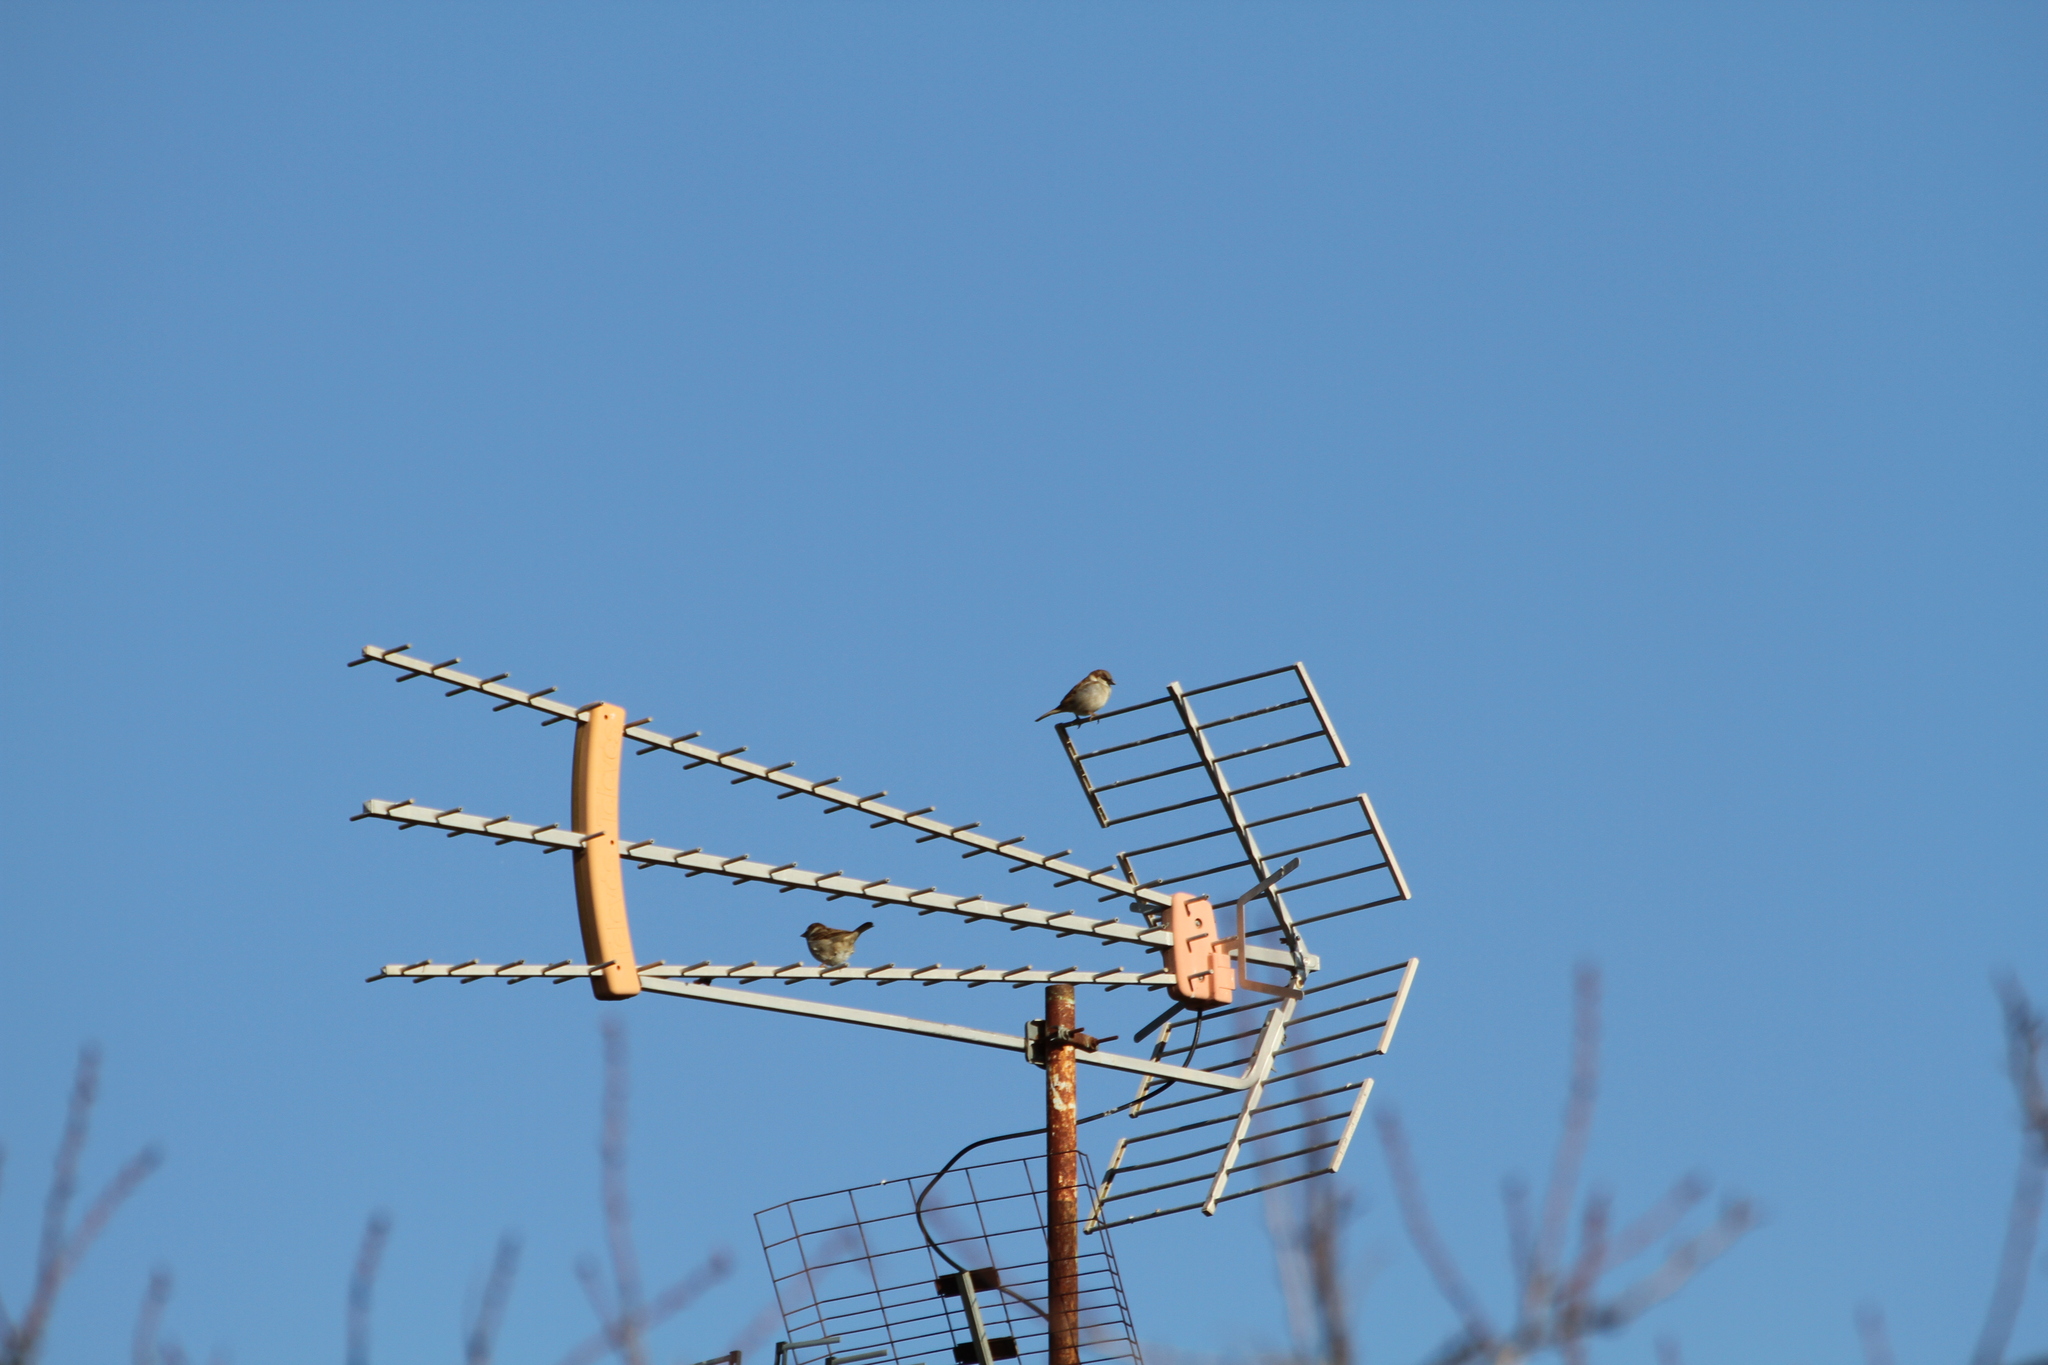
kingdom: Animalia
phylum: Chordata
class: Aves
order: Passeriformes
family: Passeridae
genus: Passer
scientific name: Passer domesticus
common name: House sparrow
